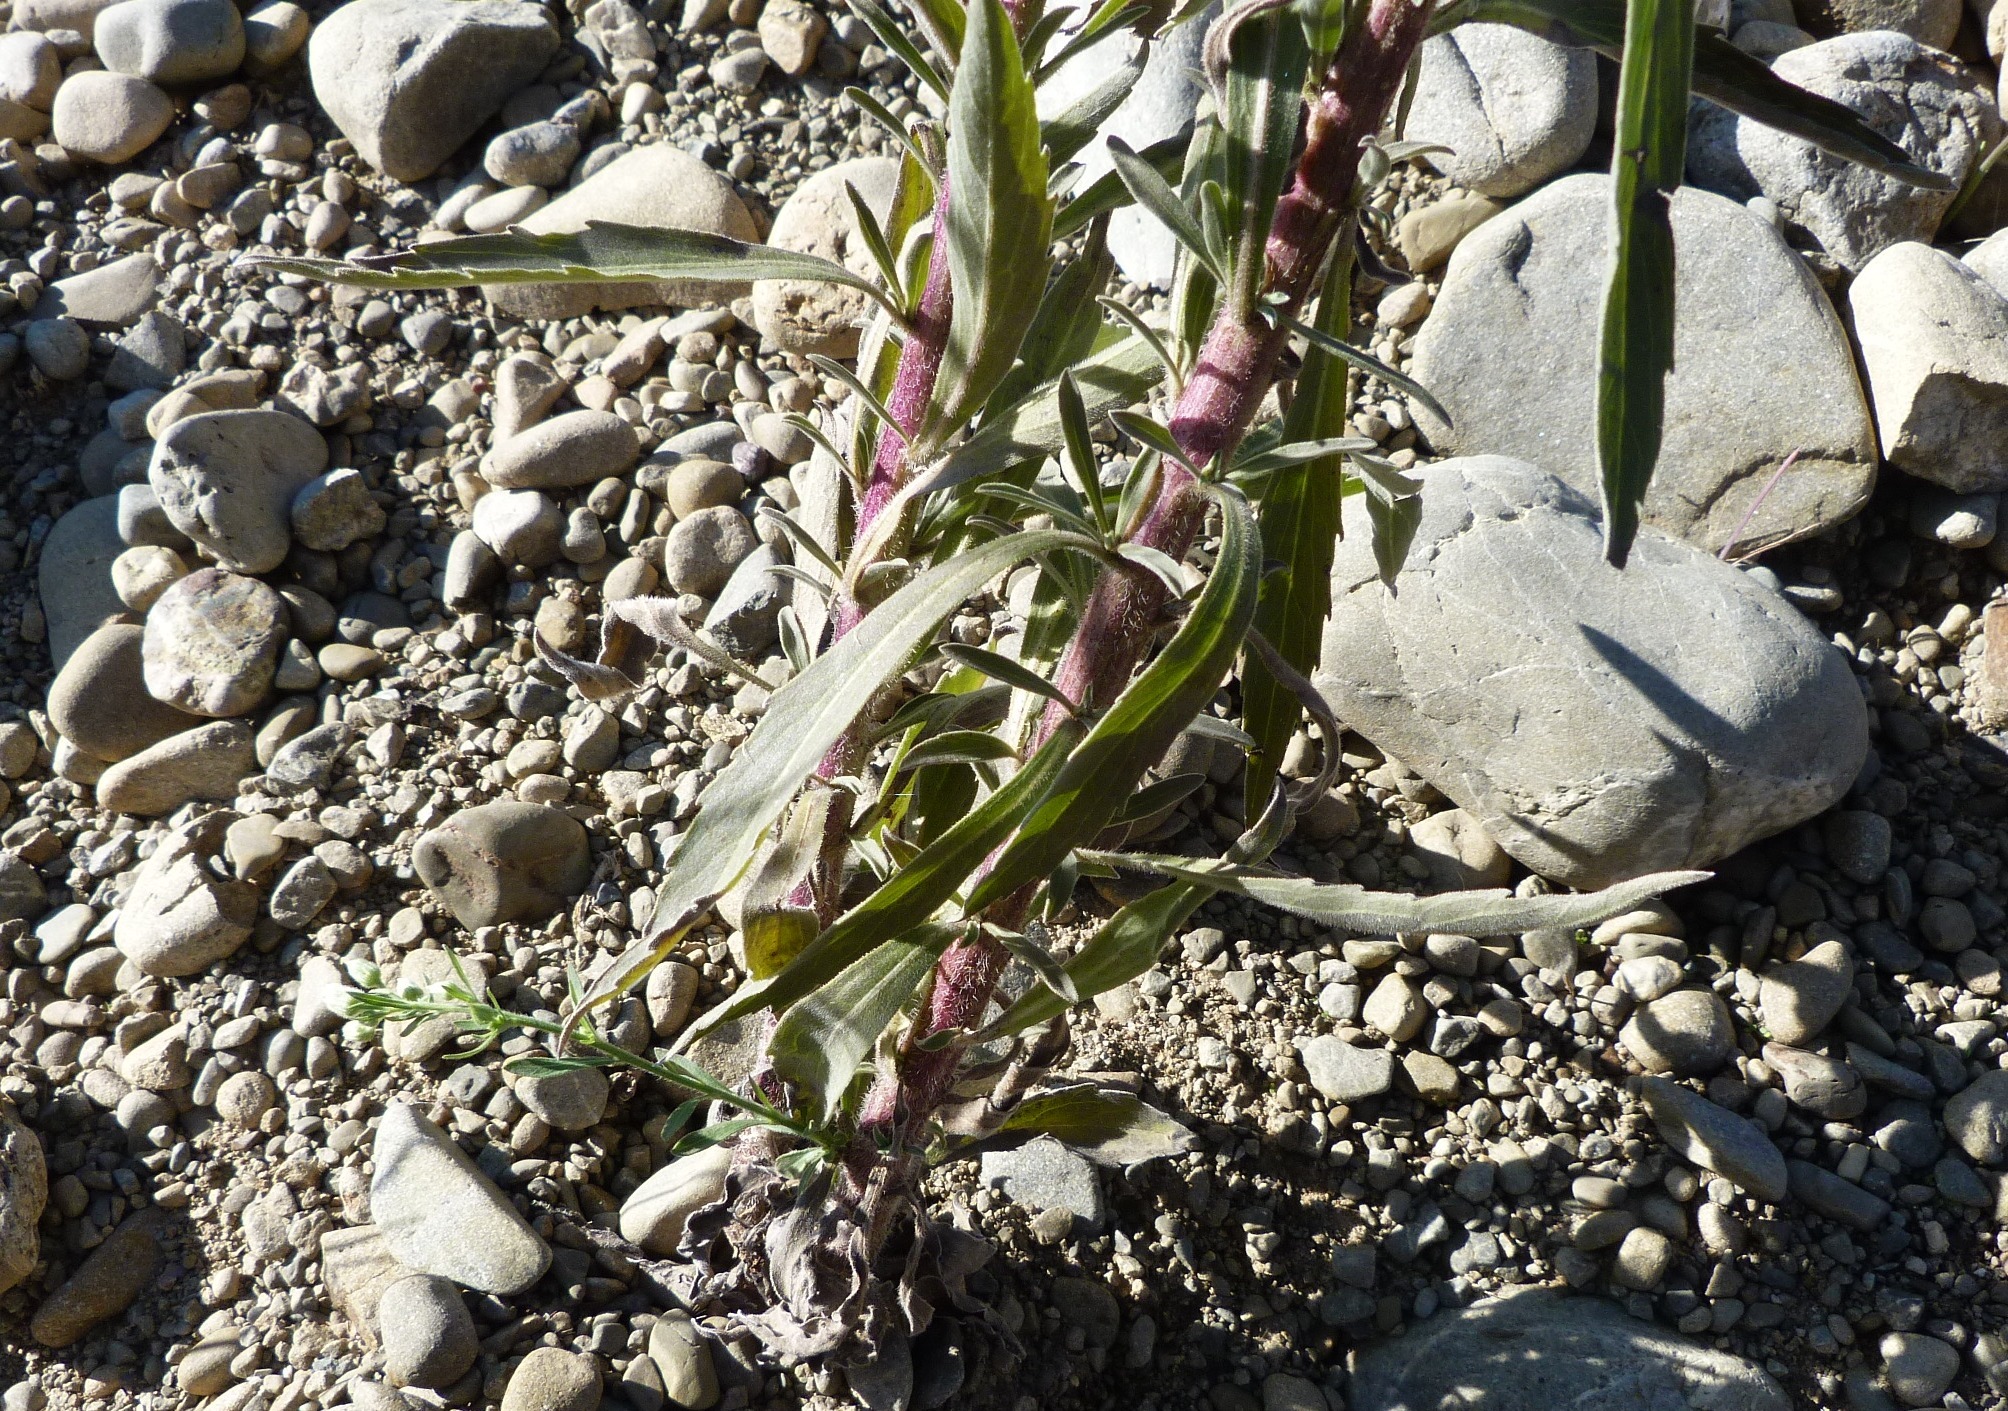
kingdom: Plantae
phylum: Tracheophyta
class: Magnoliopsida
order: Asterales
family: Asteraceae
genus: Erigeron
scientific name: Erigeron bonariensis
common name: Argentine fleabane
